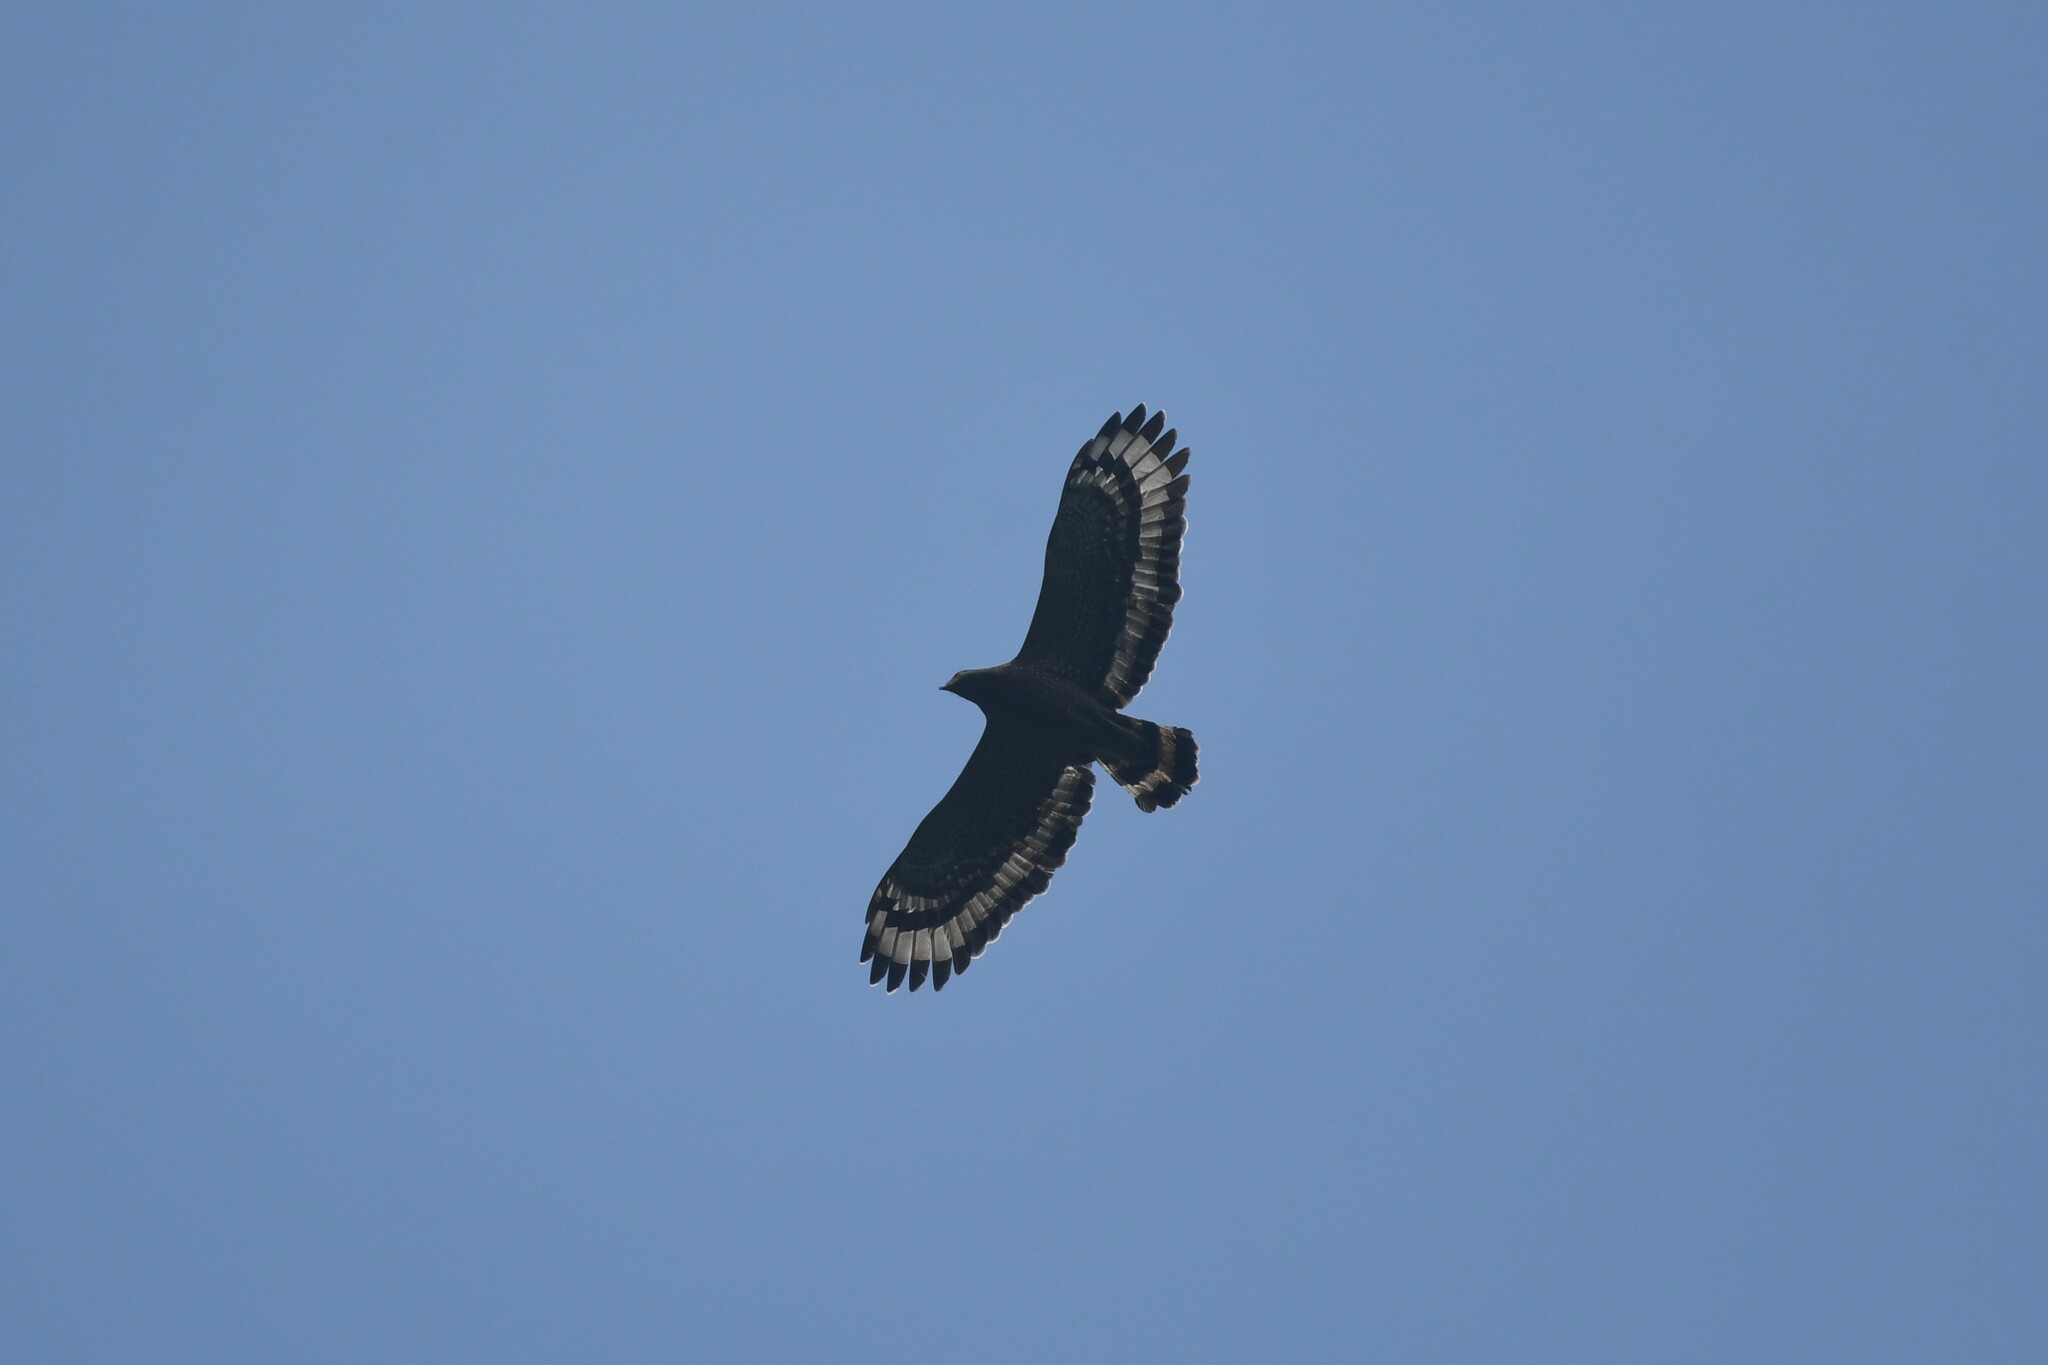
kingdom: Animalia
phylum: Chordata
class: Aves
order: Accipitriformes
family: Accipitridae
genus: Spilornis
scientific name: Spilornis cheela
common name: Crested serpent eagle
